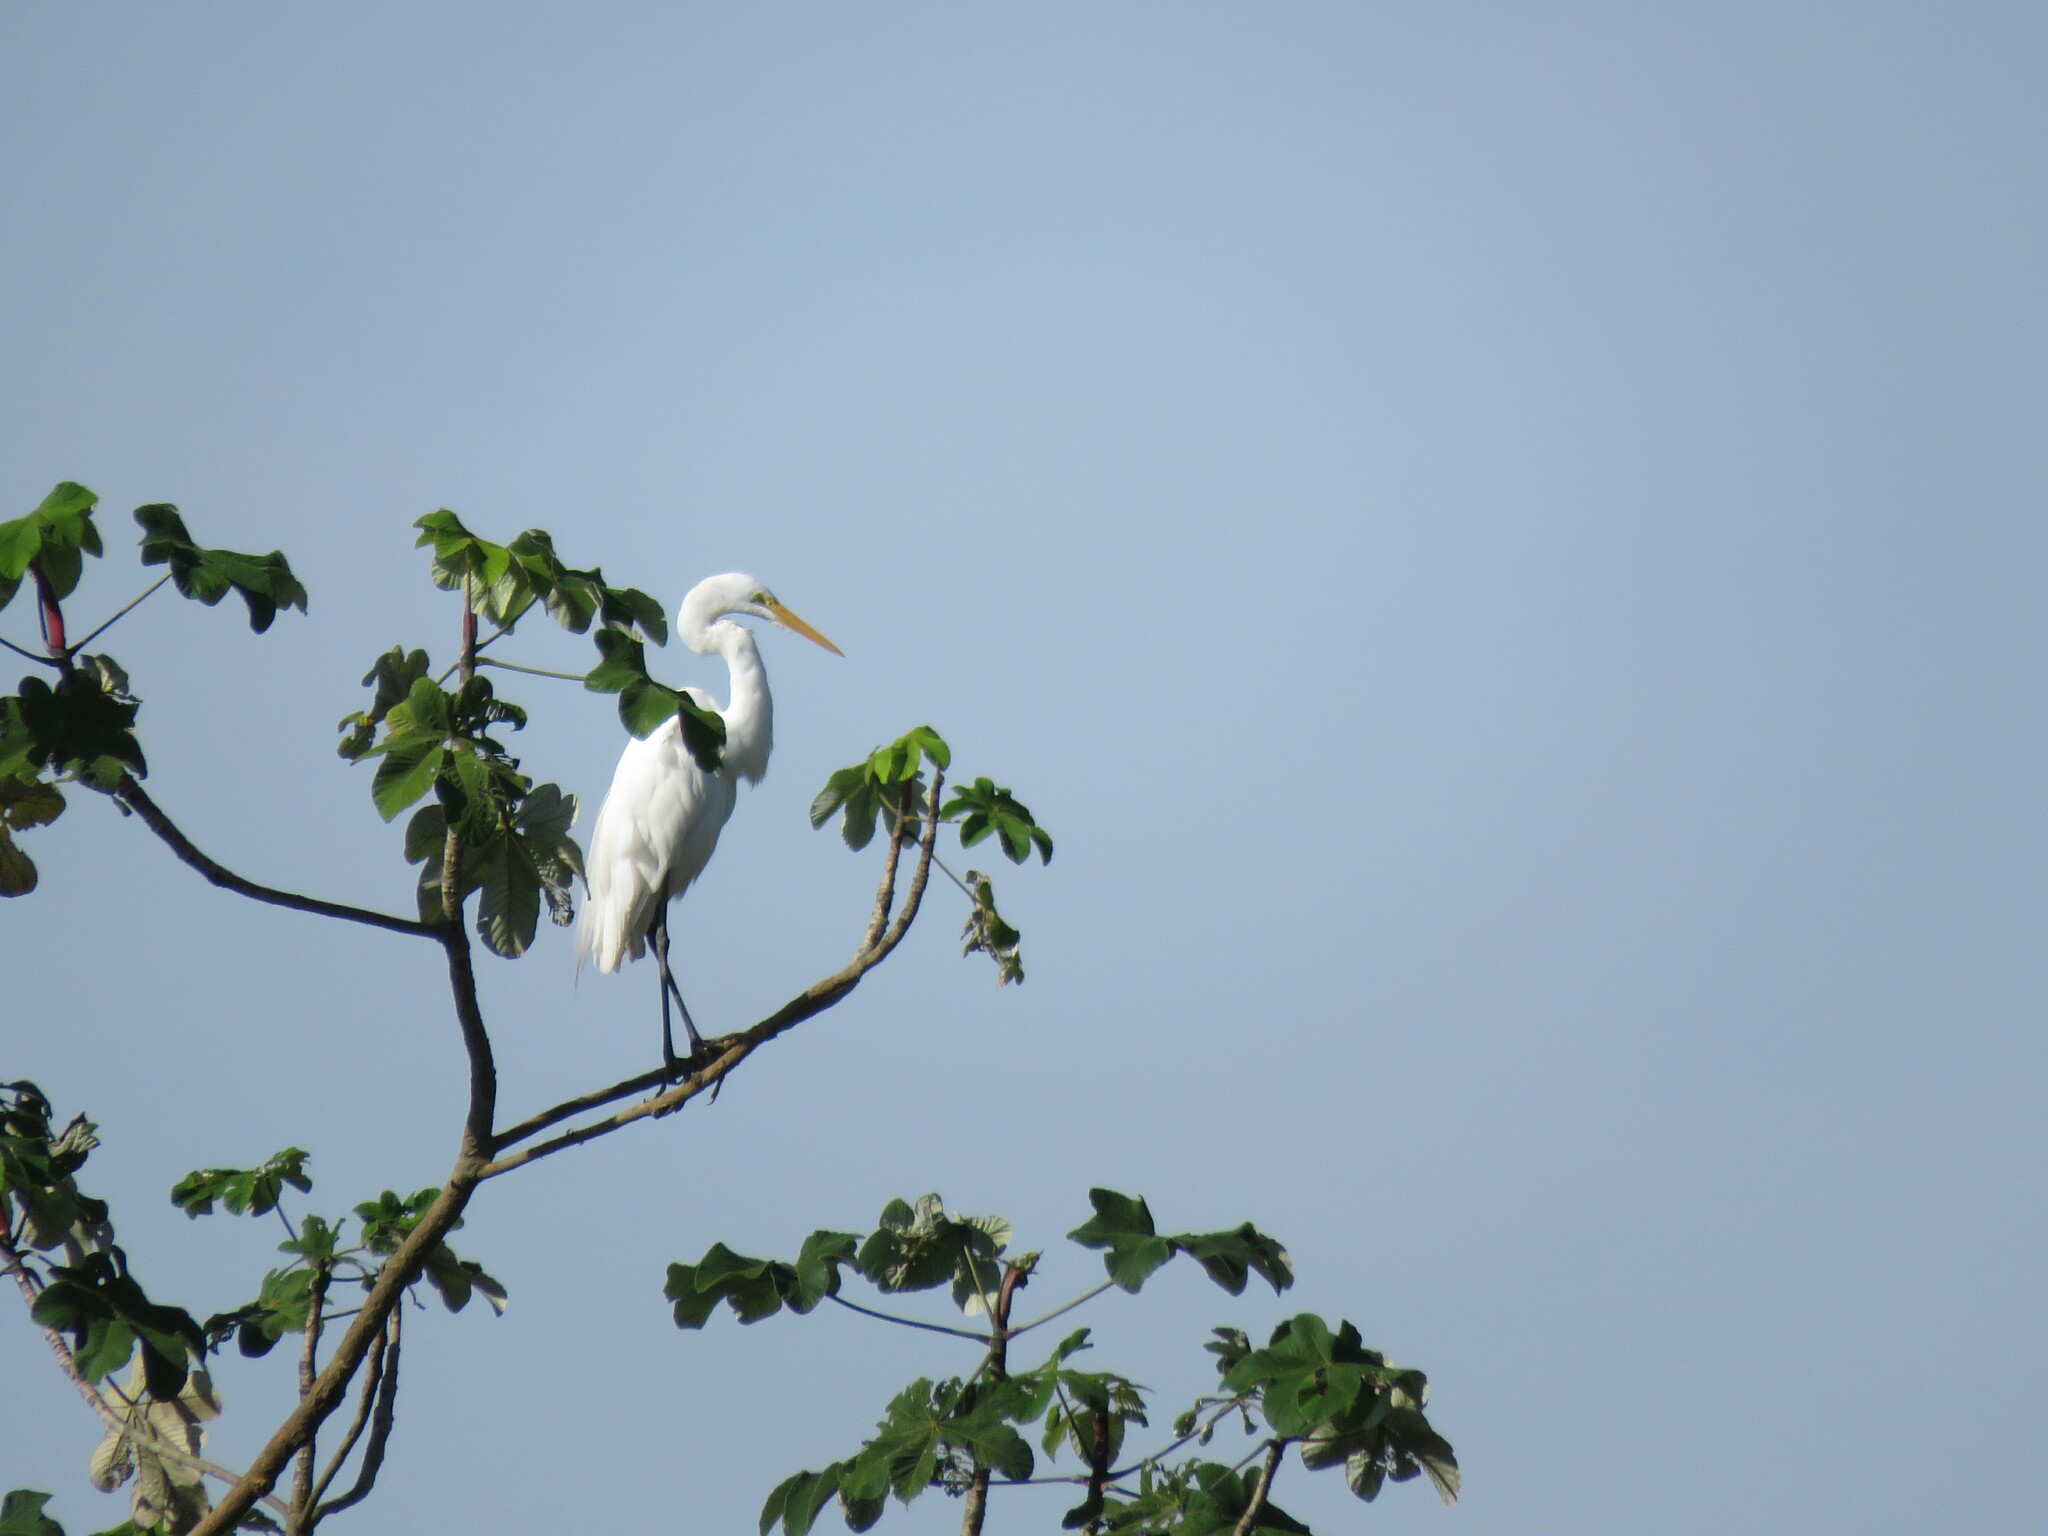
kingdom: Animalia
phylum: Chordata
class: Aves
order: Pelecaniformes
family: Ardeidae
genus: Ardea
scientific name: Ardea alba
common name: Great egret
